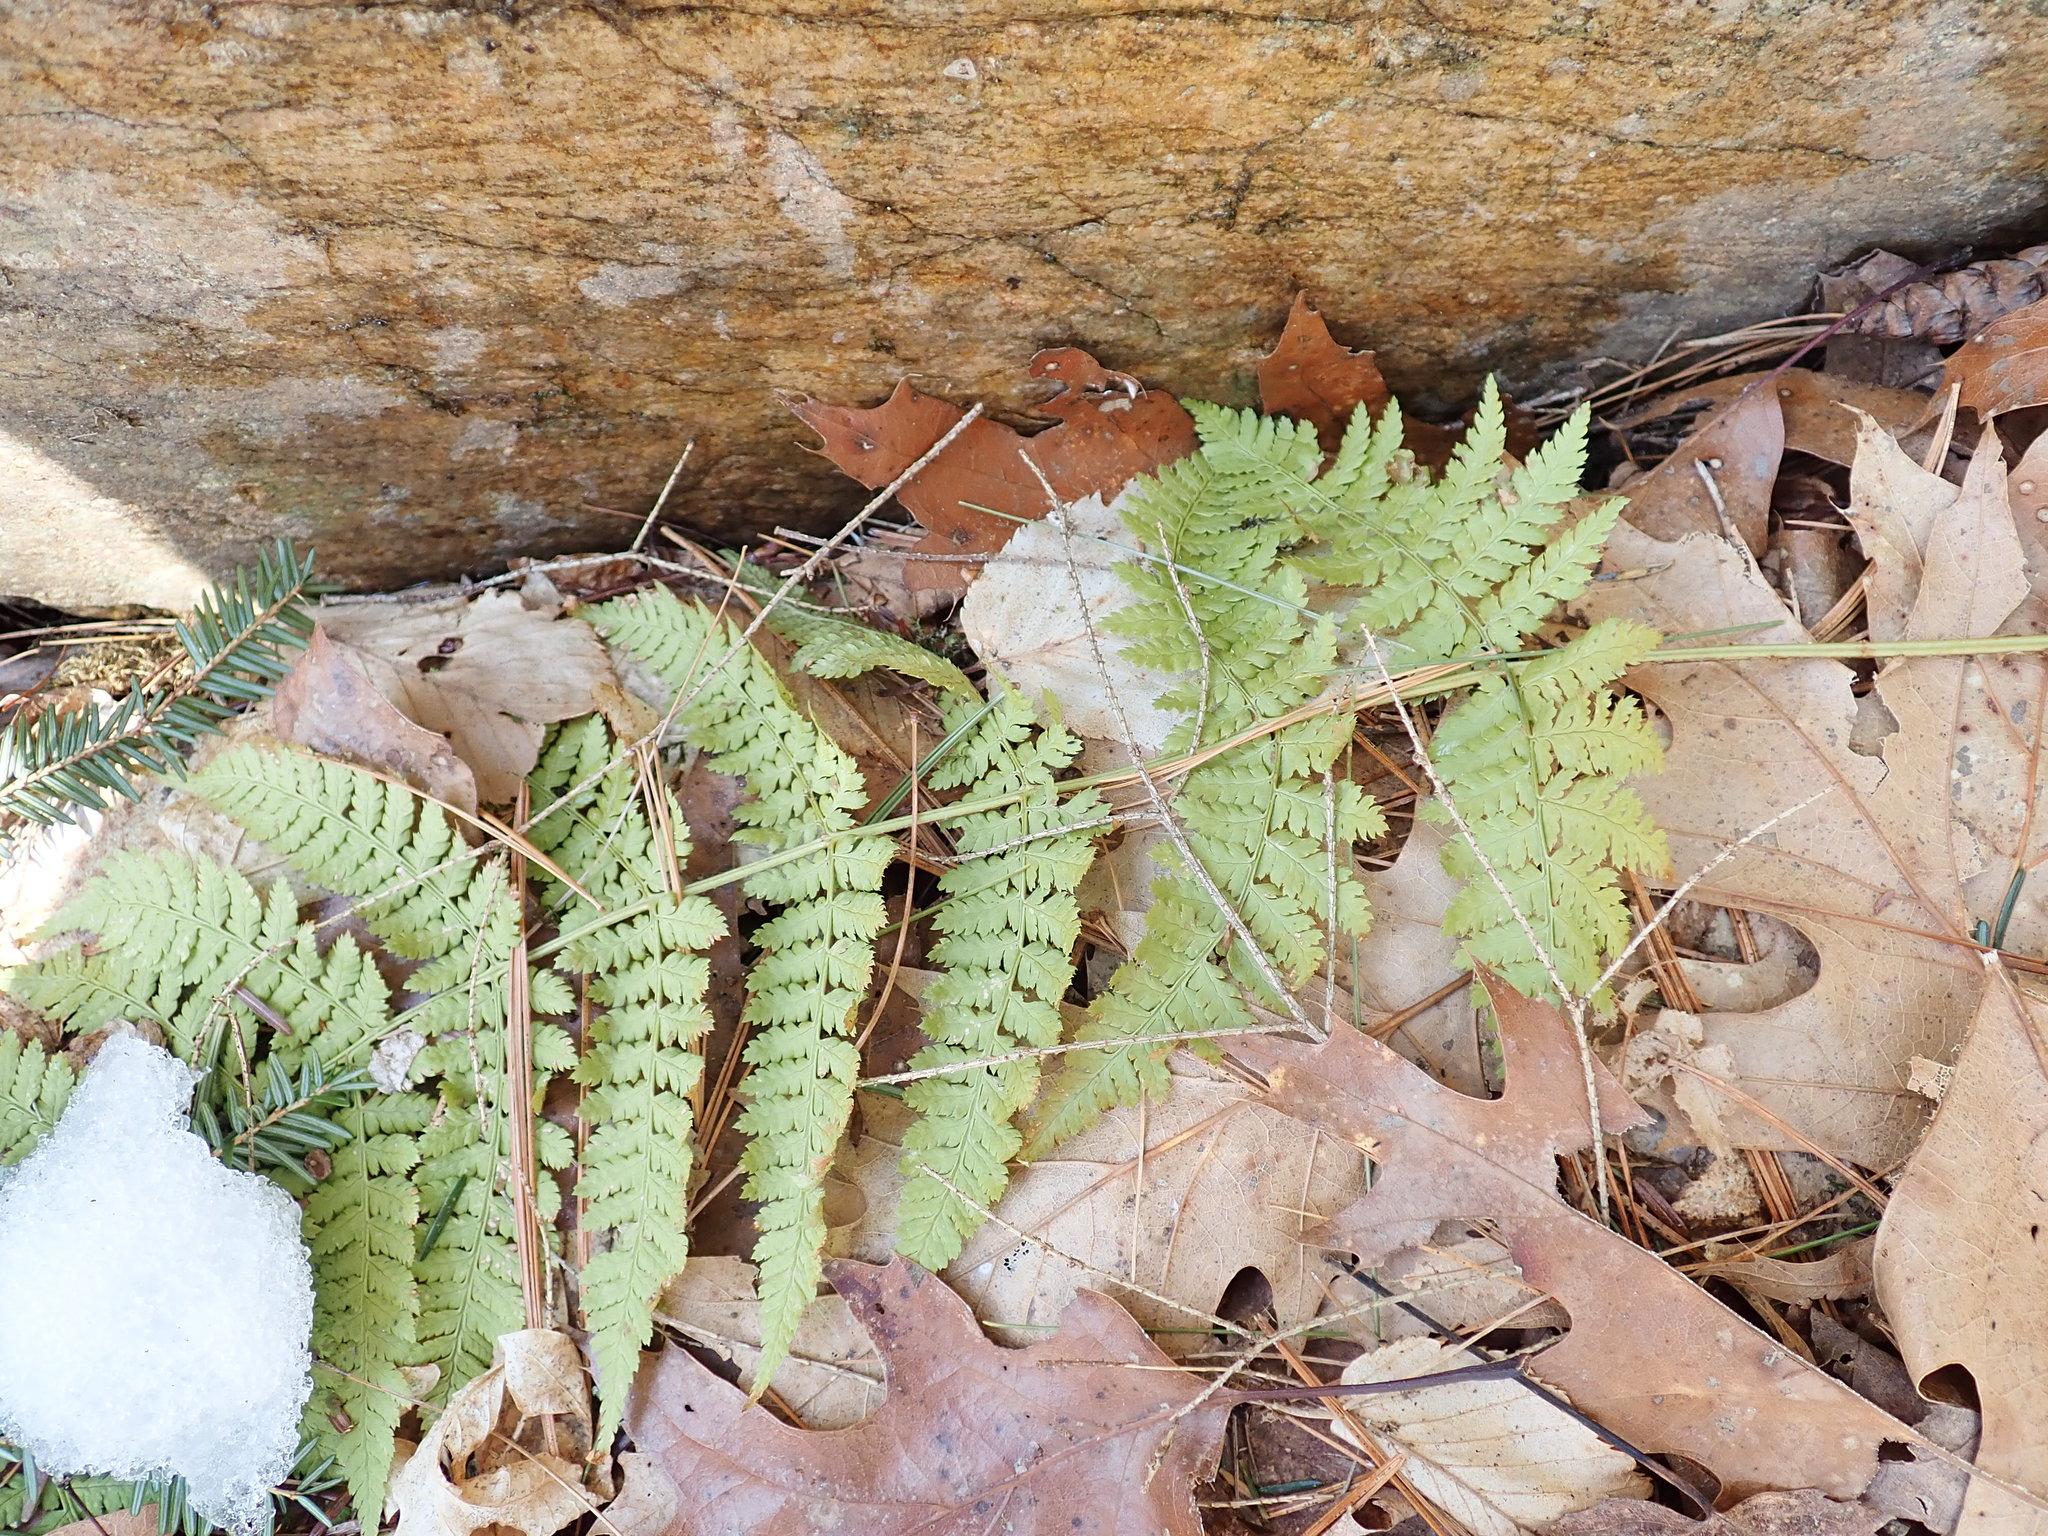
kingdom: Plantae
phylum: Tracheophyta
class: Polypodiopsida
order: Polypodiales
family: Dryopteridaceae
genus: Dryopteris
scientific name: Dryopteris intermedia
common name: Evergreen wood fern
